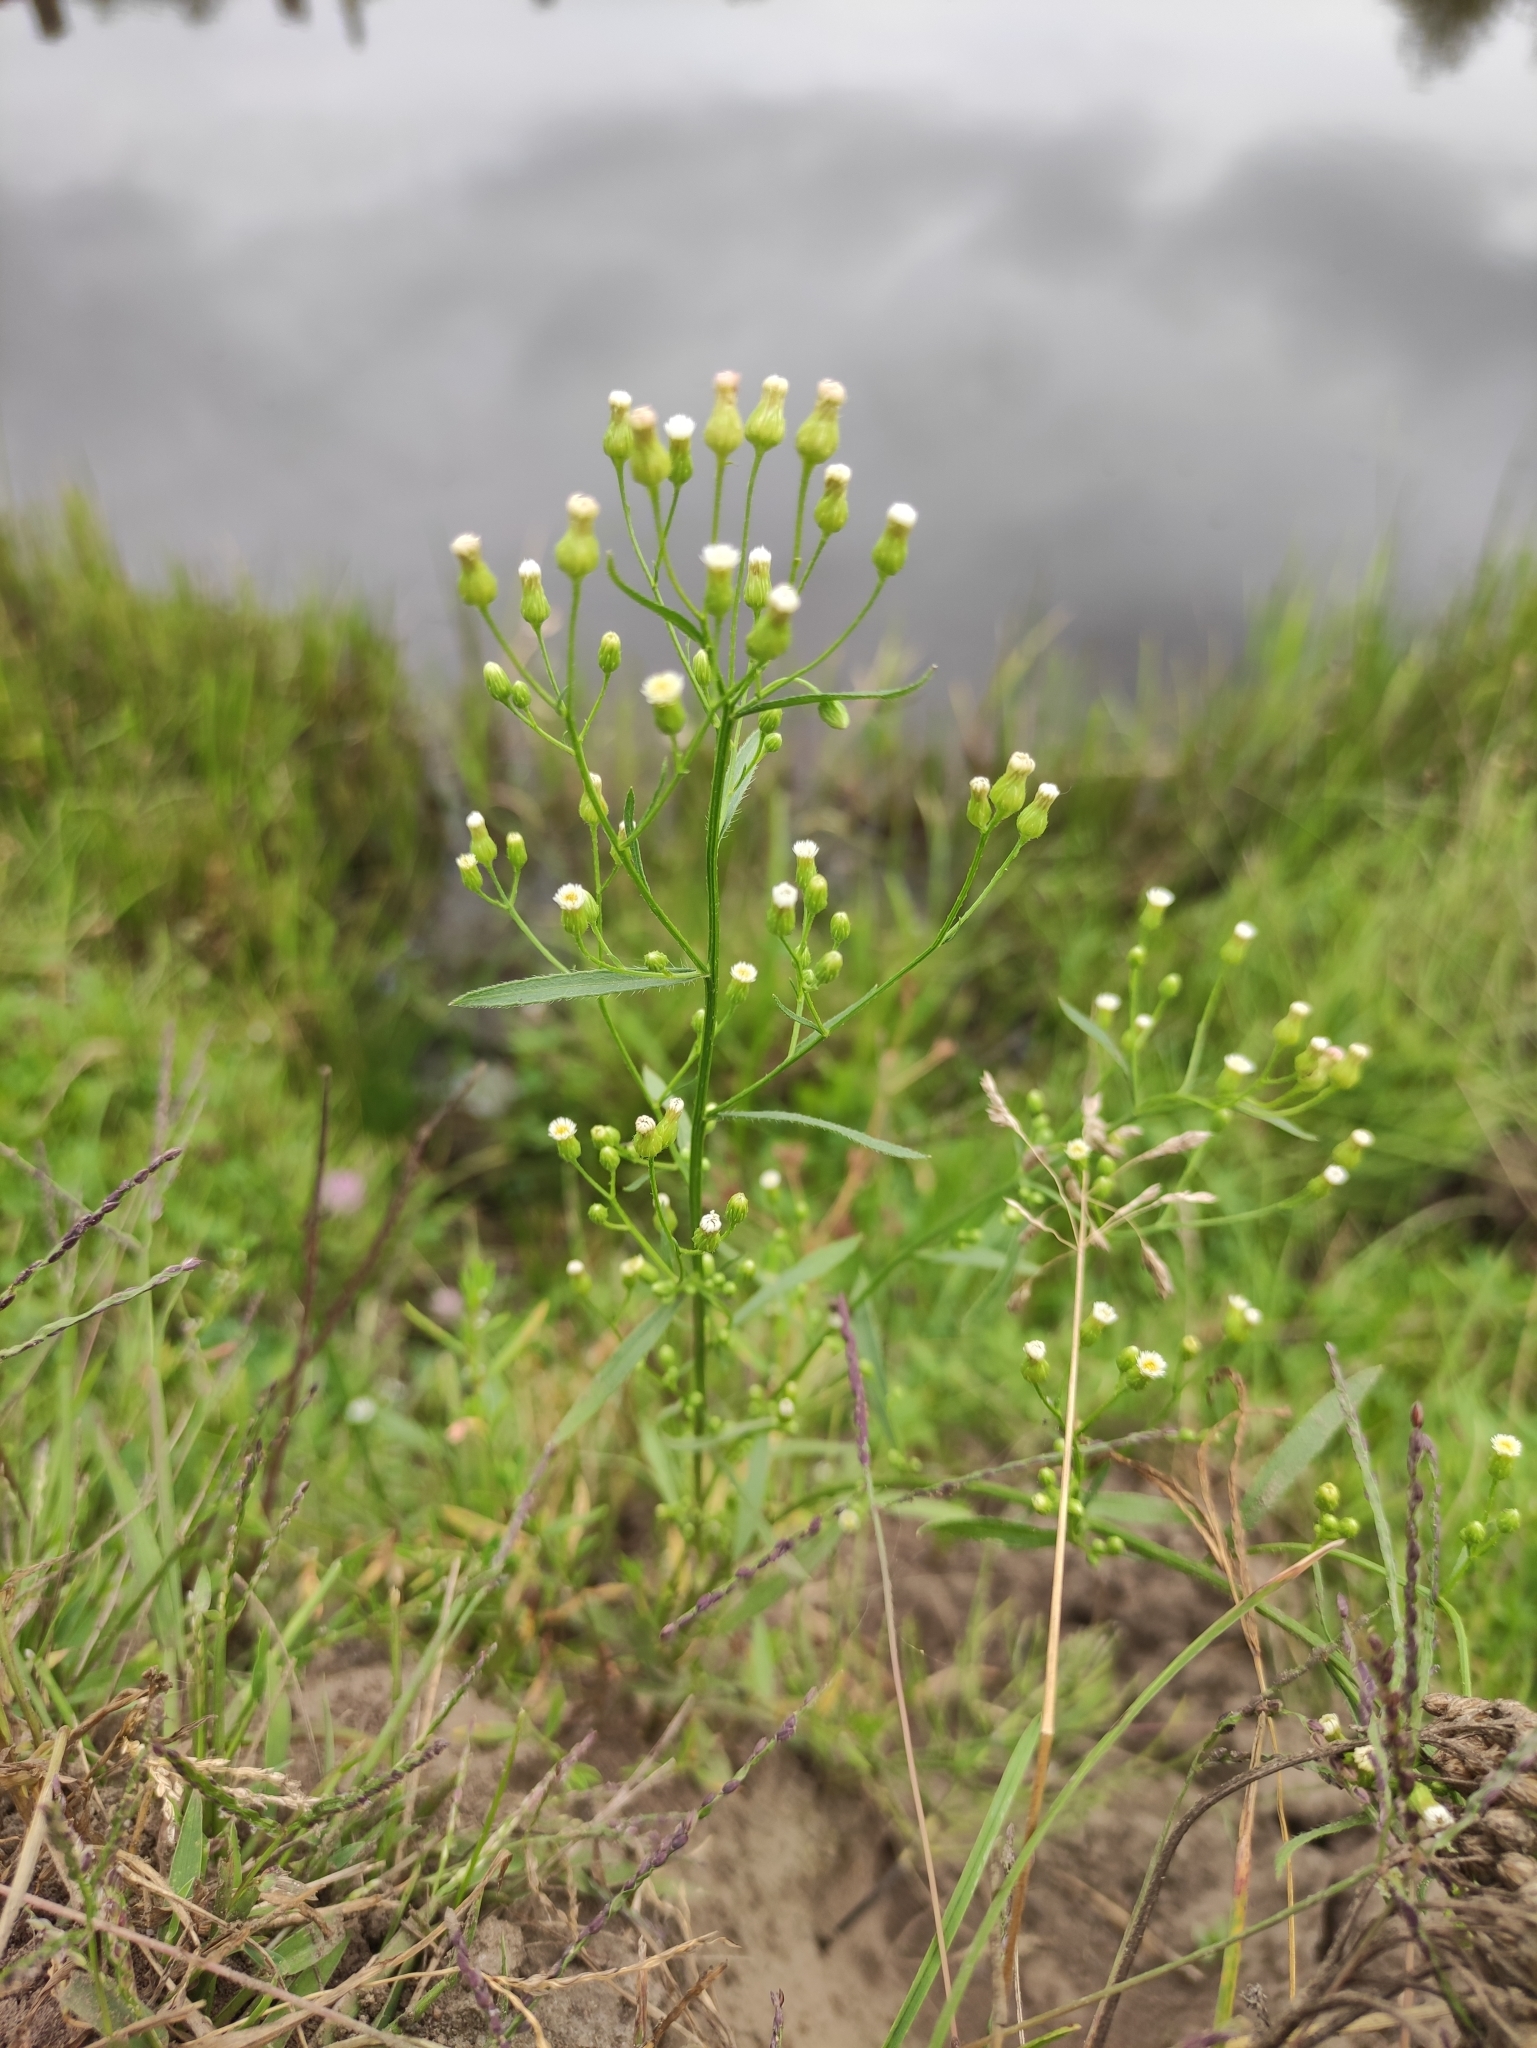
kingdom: Plantae
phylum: Tracheophyta
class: Magnoliopsida
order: Asterales
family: Asteraceae
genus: Erigeron
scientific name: Erigeron canadensis
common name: Canadian fleabane
